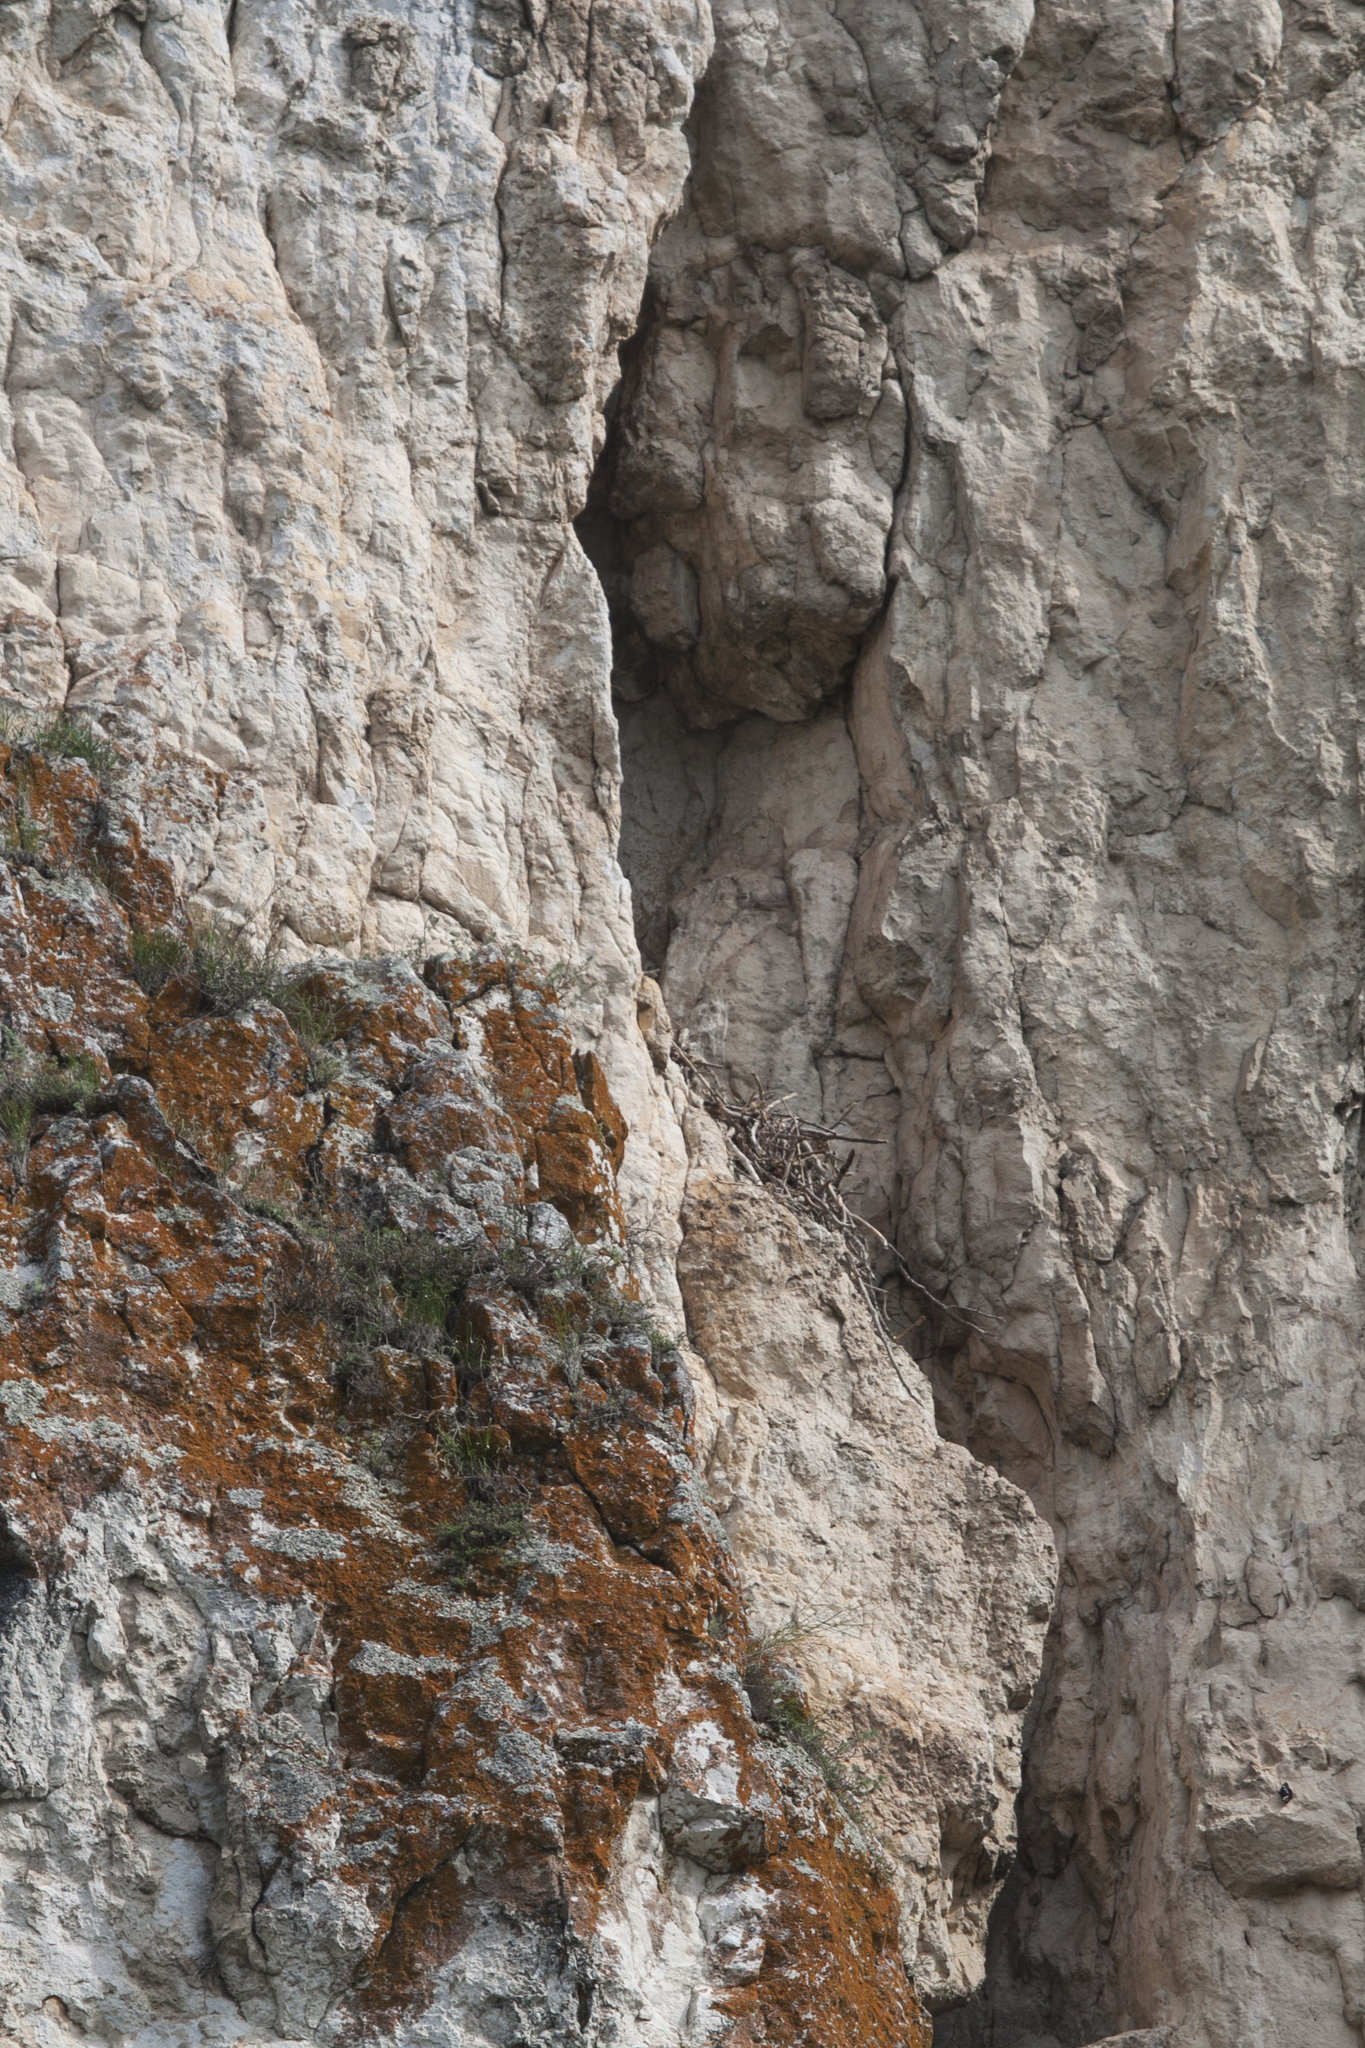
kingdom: Animalia
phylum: Chordata
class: Aves
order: Passeriformes
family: Corvidae
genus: Corvus
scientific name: Corvus corax
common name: Common raven
